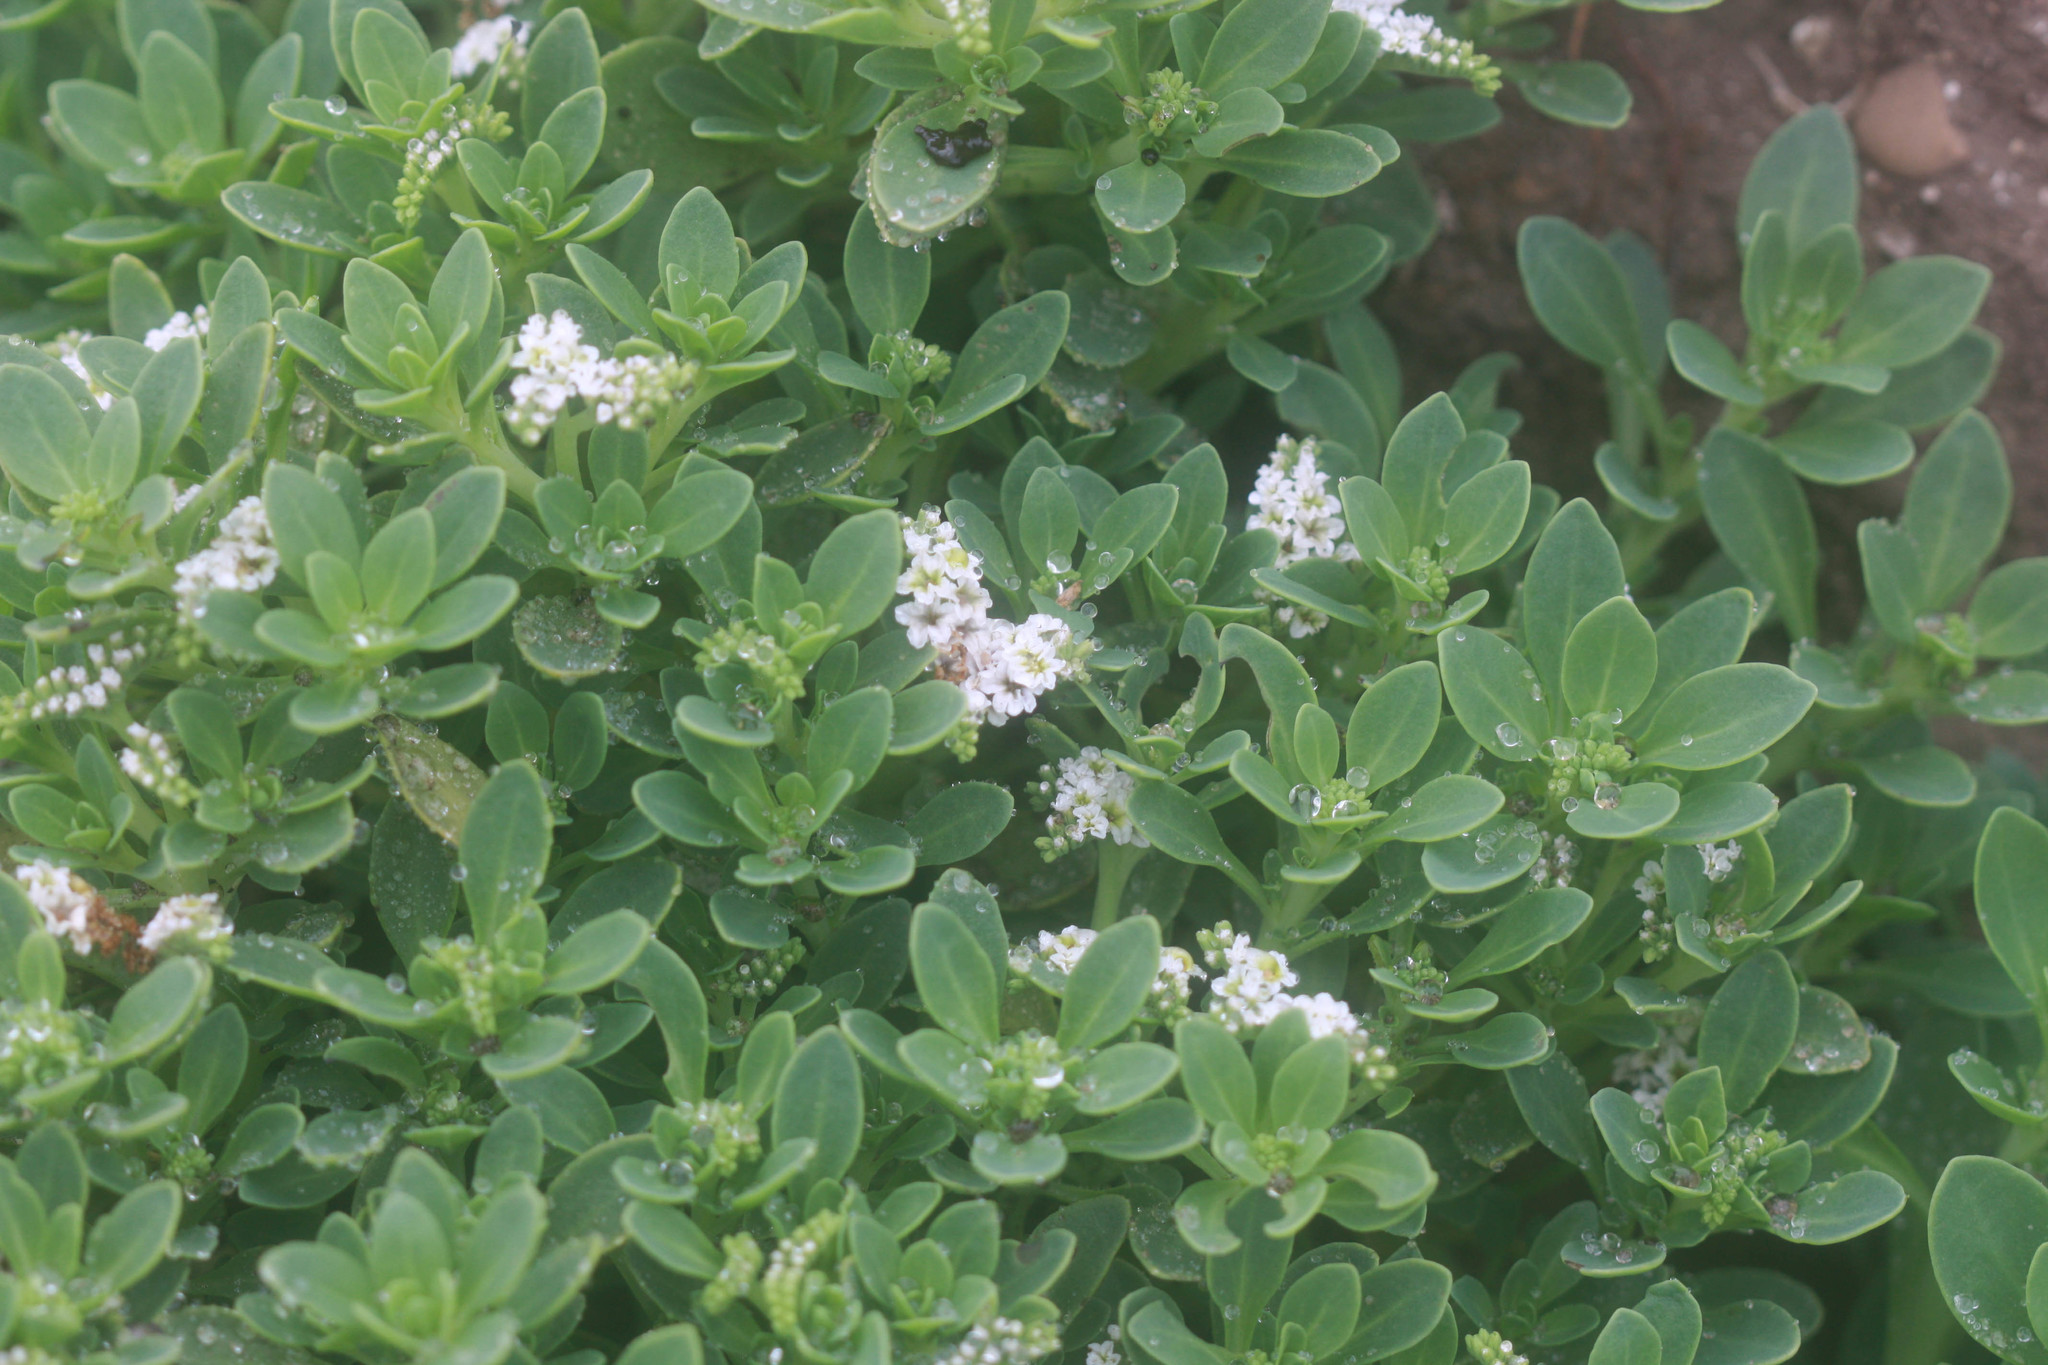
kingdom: Plantae
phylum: Tracheophyta
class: Magnoliopsida
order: Boraginales
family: Heliotropiaceae
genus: Heliotropium
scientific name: Heliotropium curassavicum
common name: Seaside heliotrope
